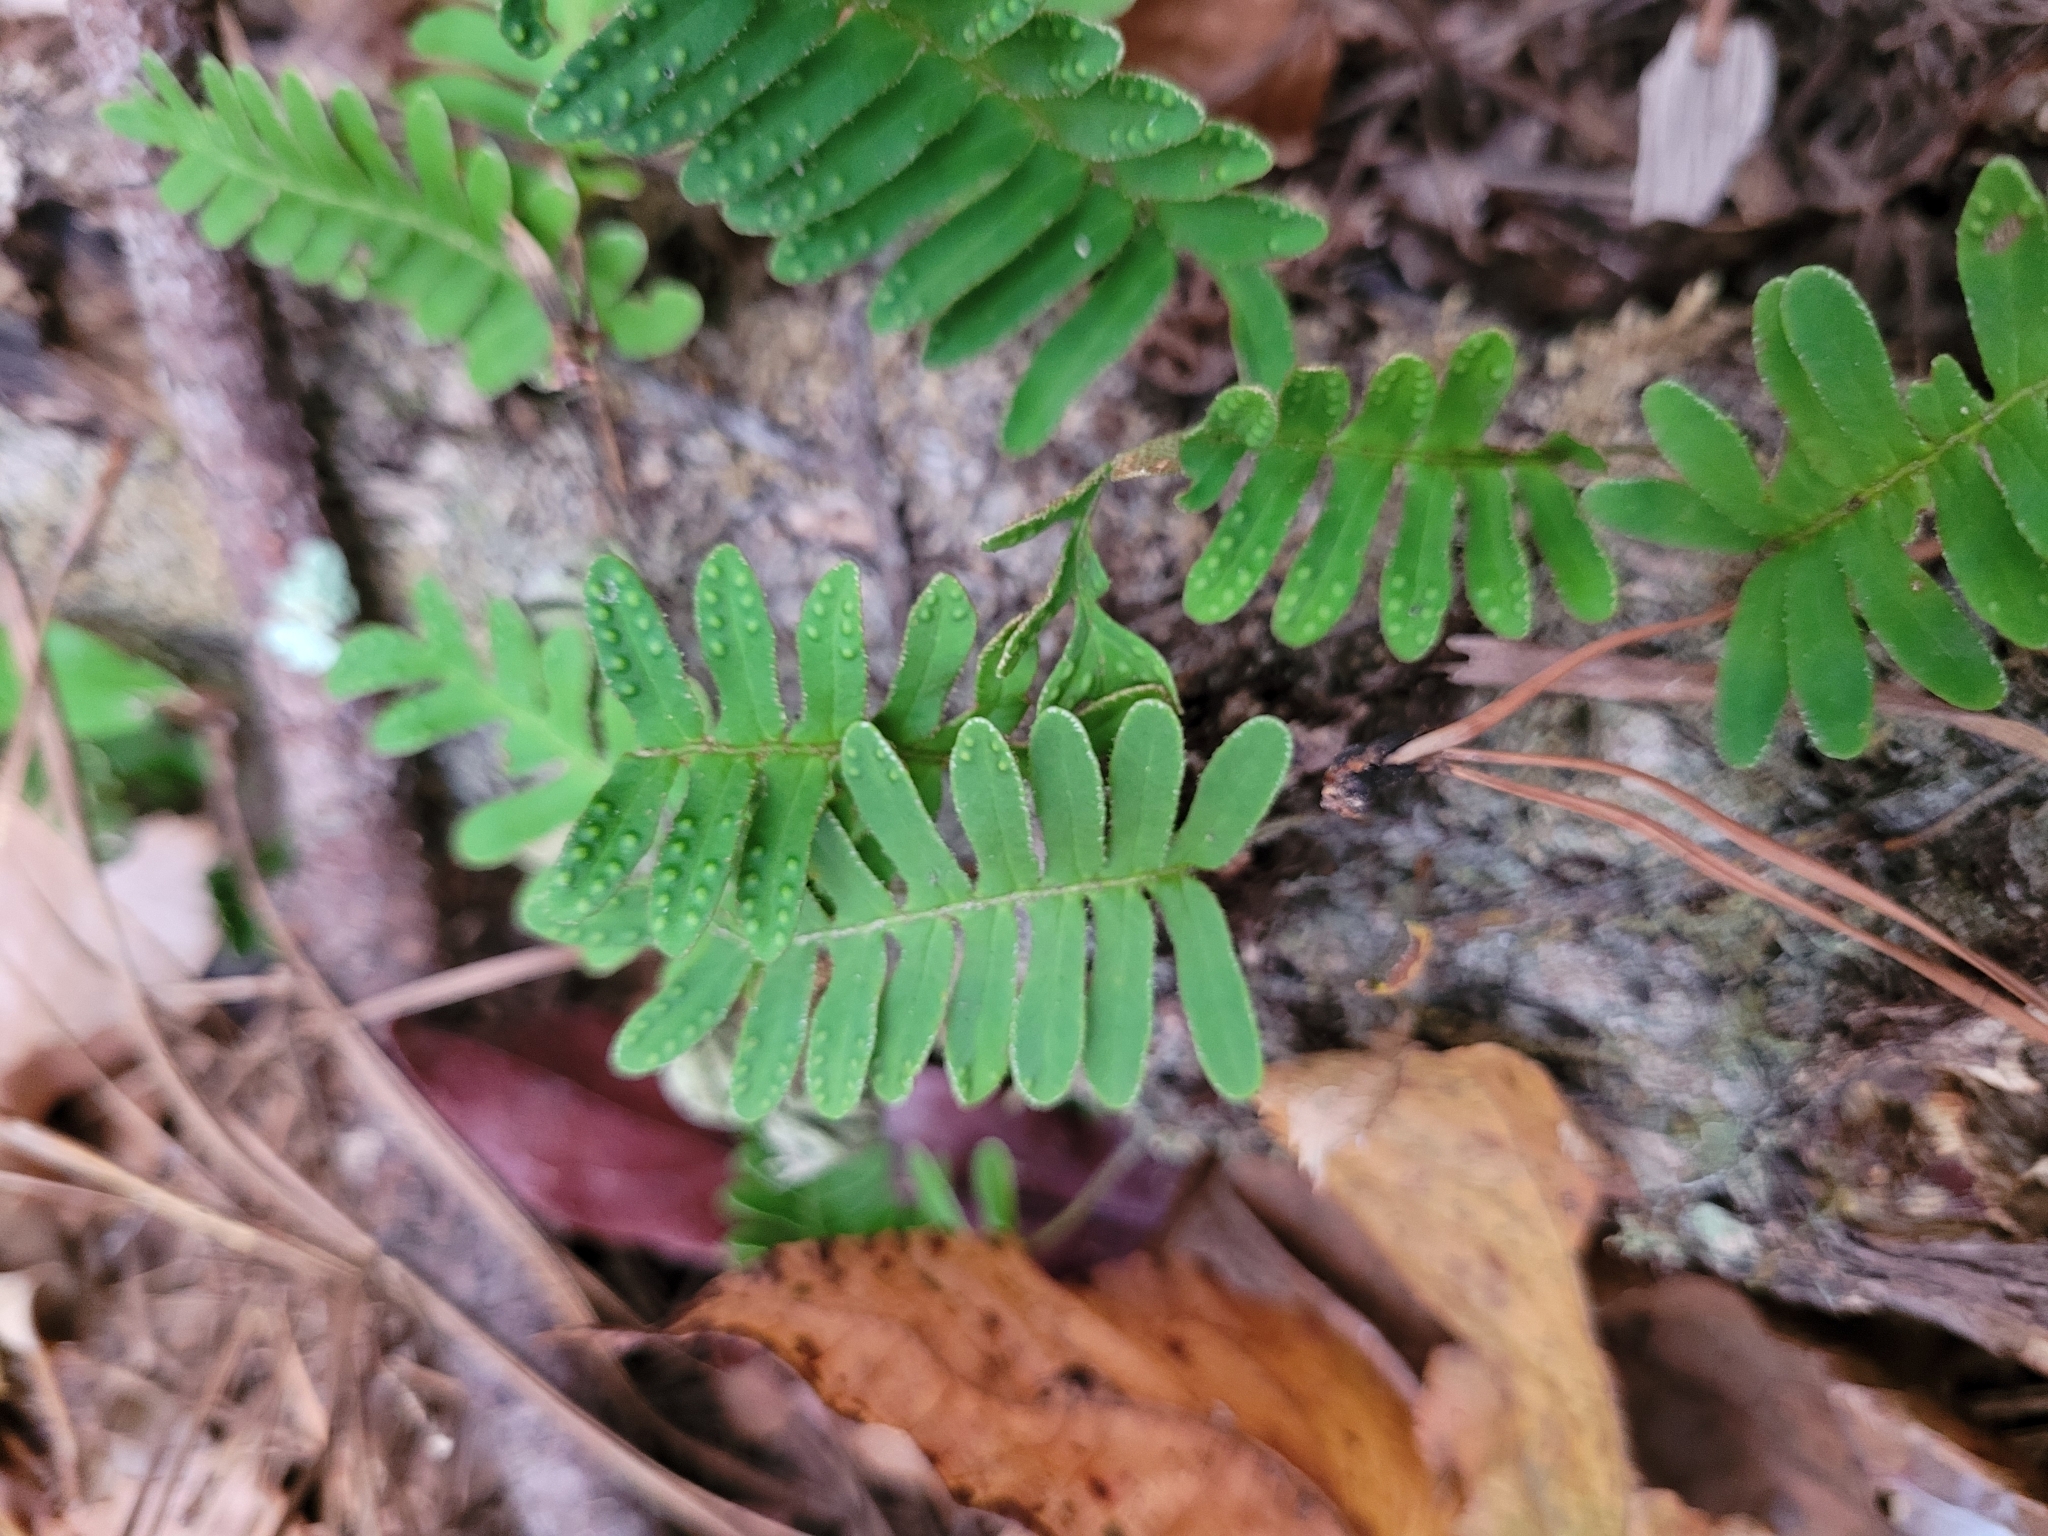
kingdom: Plantae
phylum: Tracheophyta
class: Polypodiopsida
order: Polypodiales
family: Polypodiaceae
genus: Pleopeltis
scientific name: Pleopeltis michauxiana
